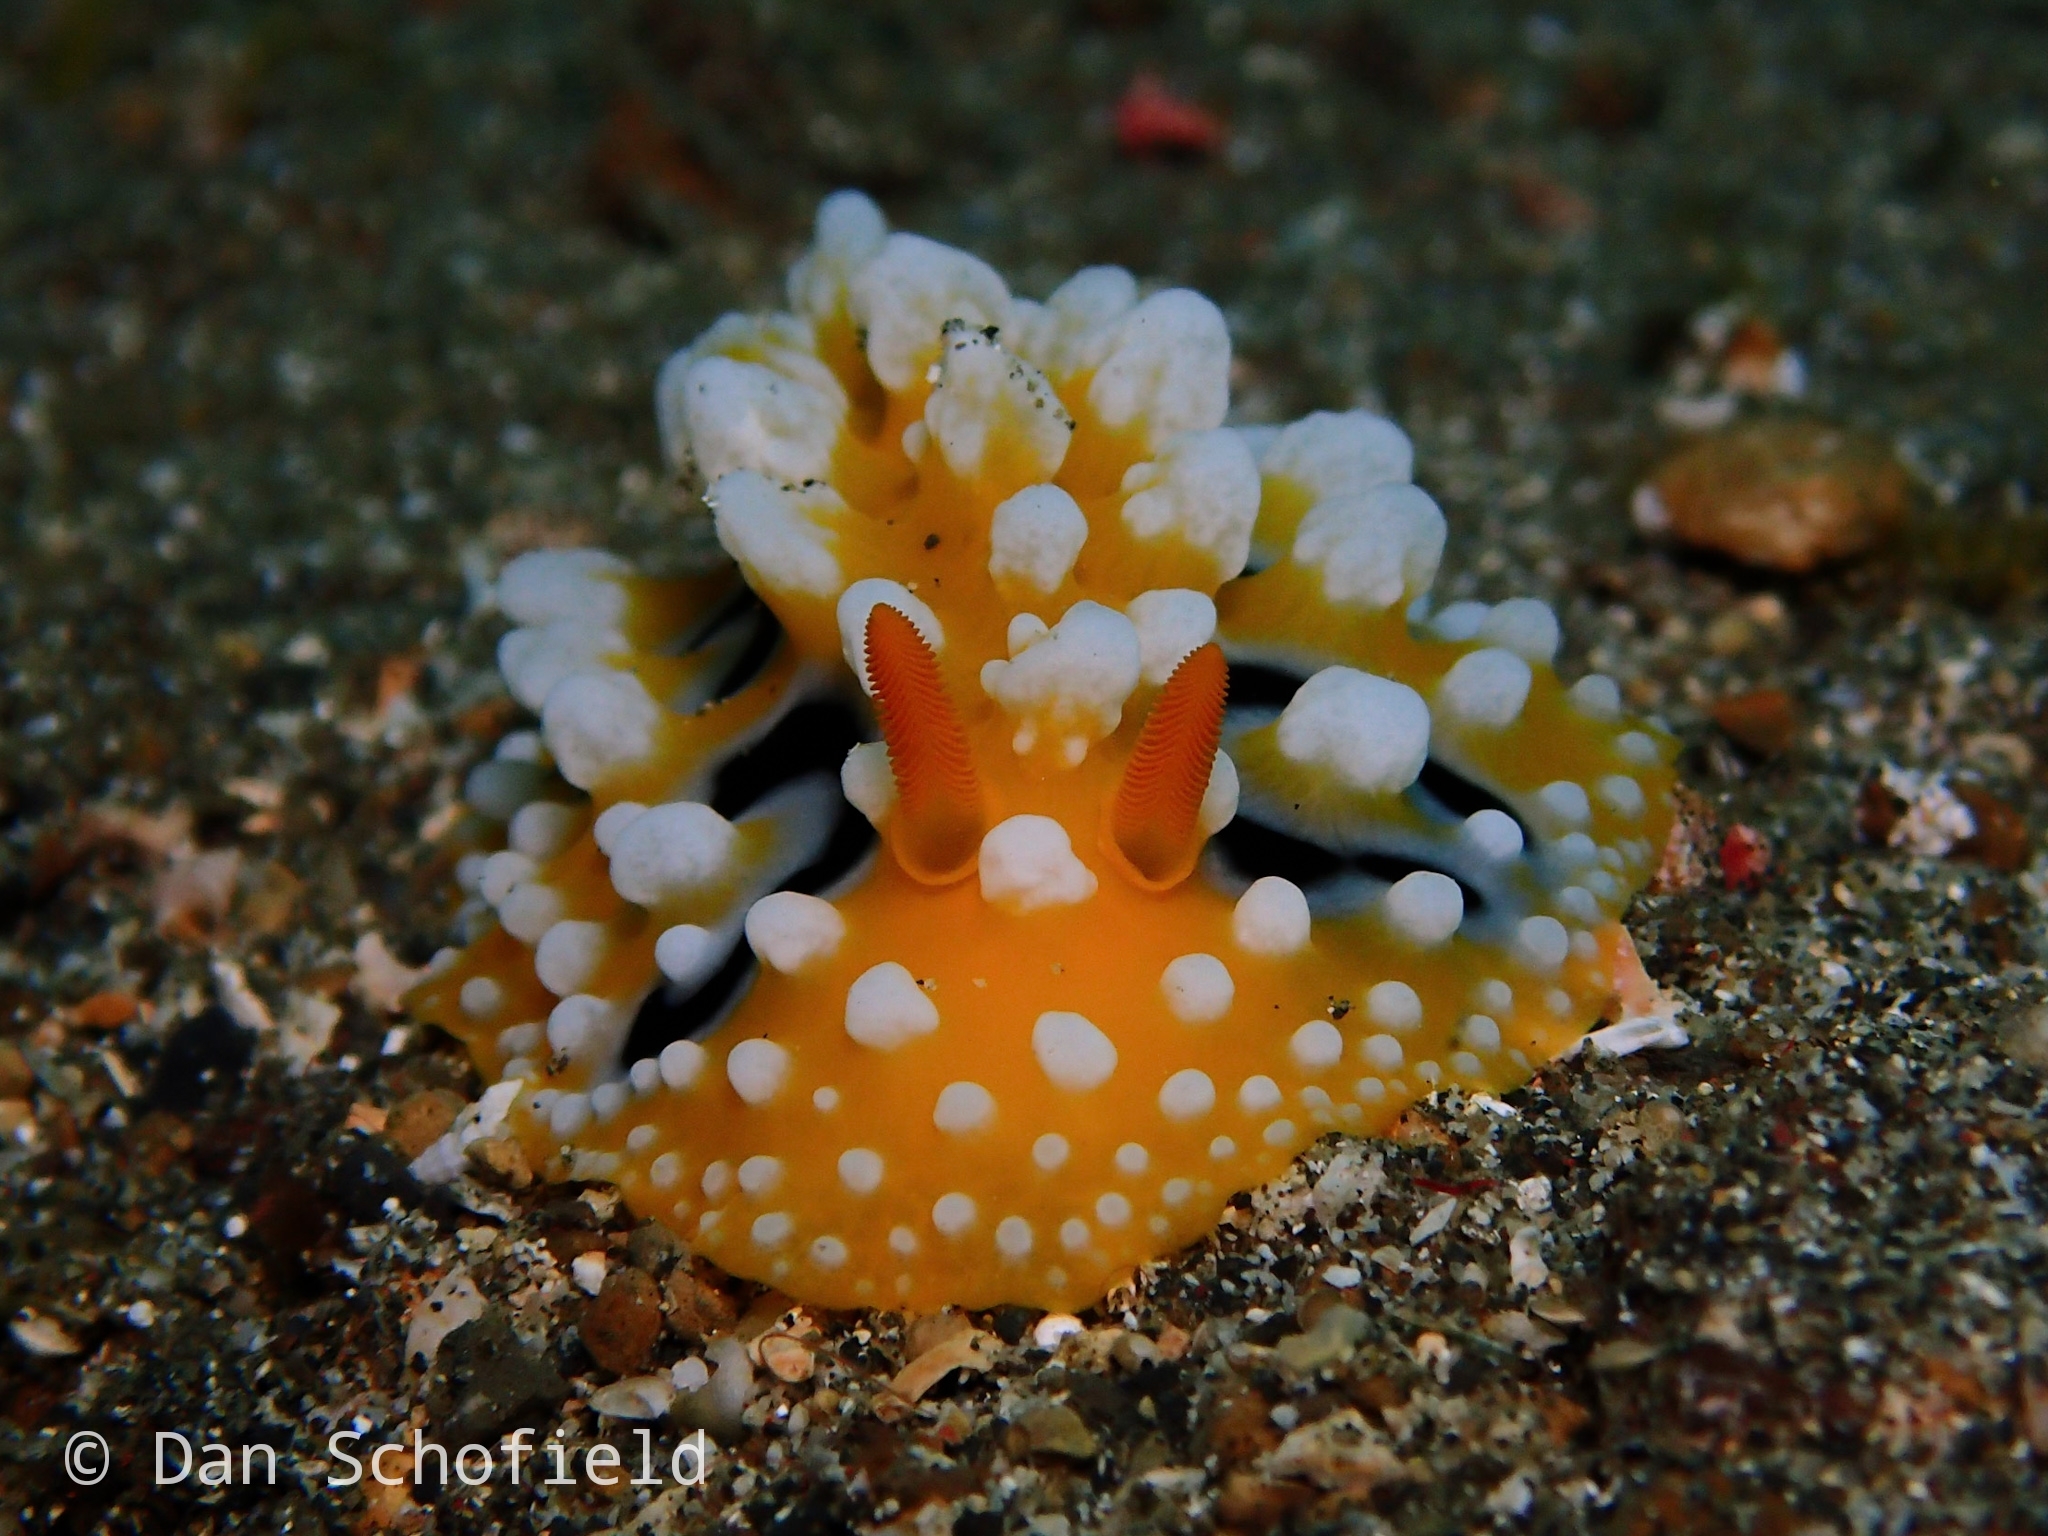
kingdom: Animalia
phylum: Mollusca
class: Gastropoda
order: Nudibranchia
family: Phyllidiidae
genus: Phyllidia
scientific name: Phyllidia ocellata
